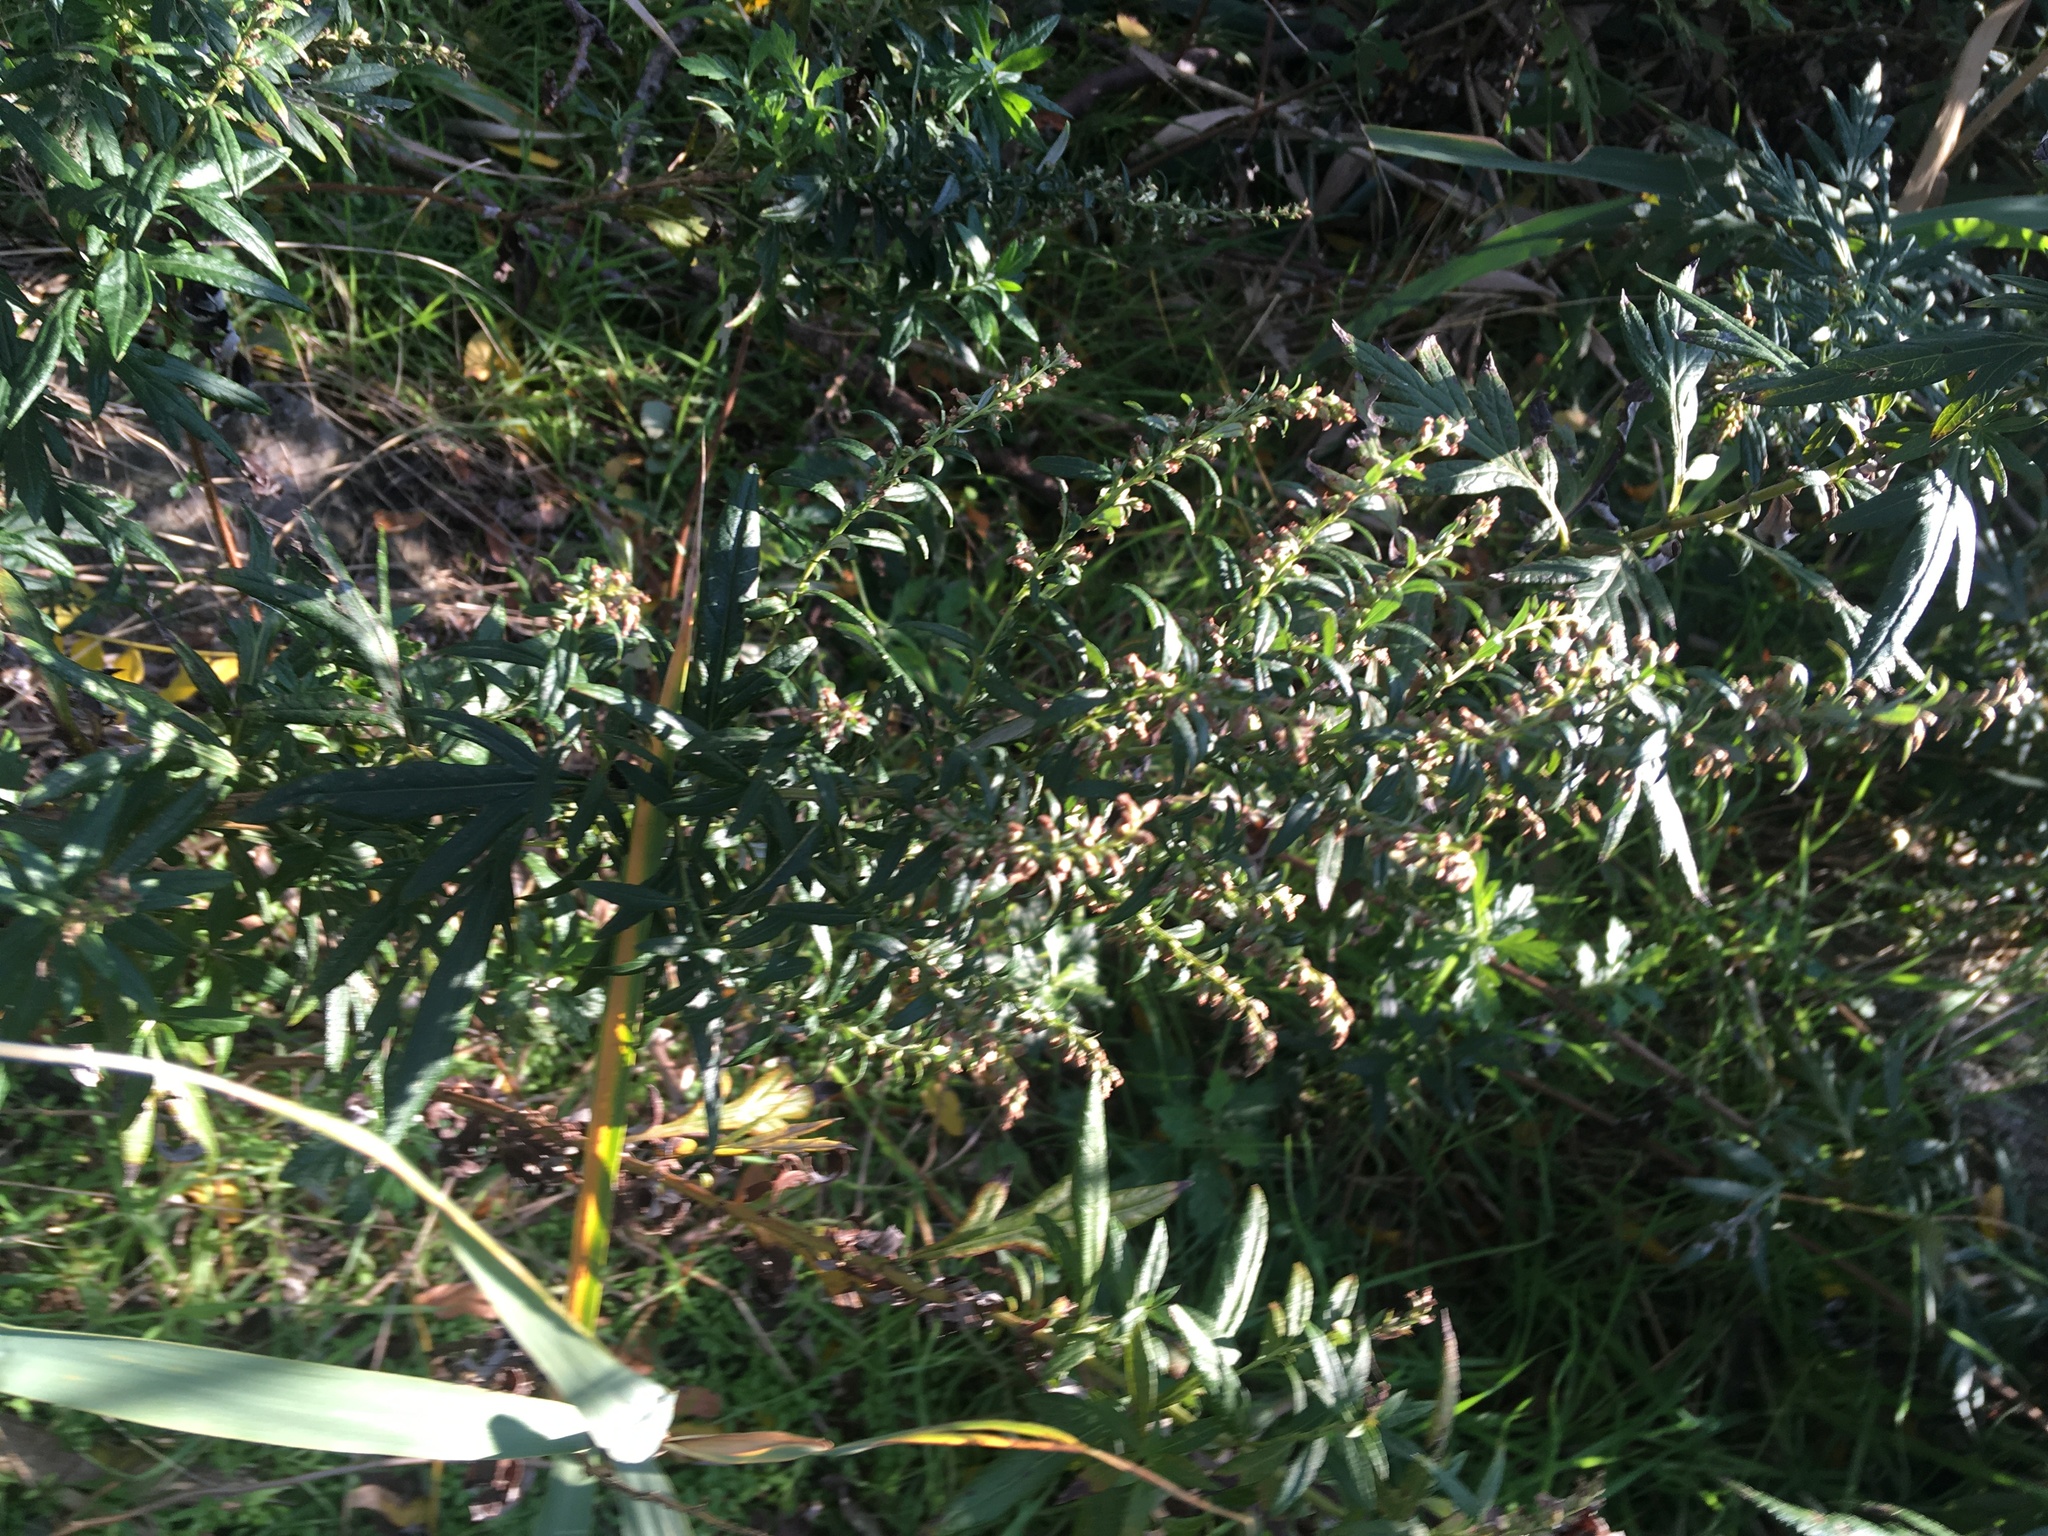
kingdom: Plantae
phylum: Tracheophyta
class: Magnoliopsida
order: Asterales
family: Asteraceae
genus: Artemisia
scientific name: Artemisia vulgaris
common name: Mugwort
